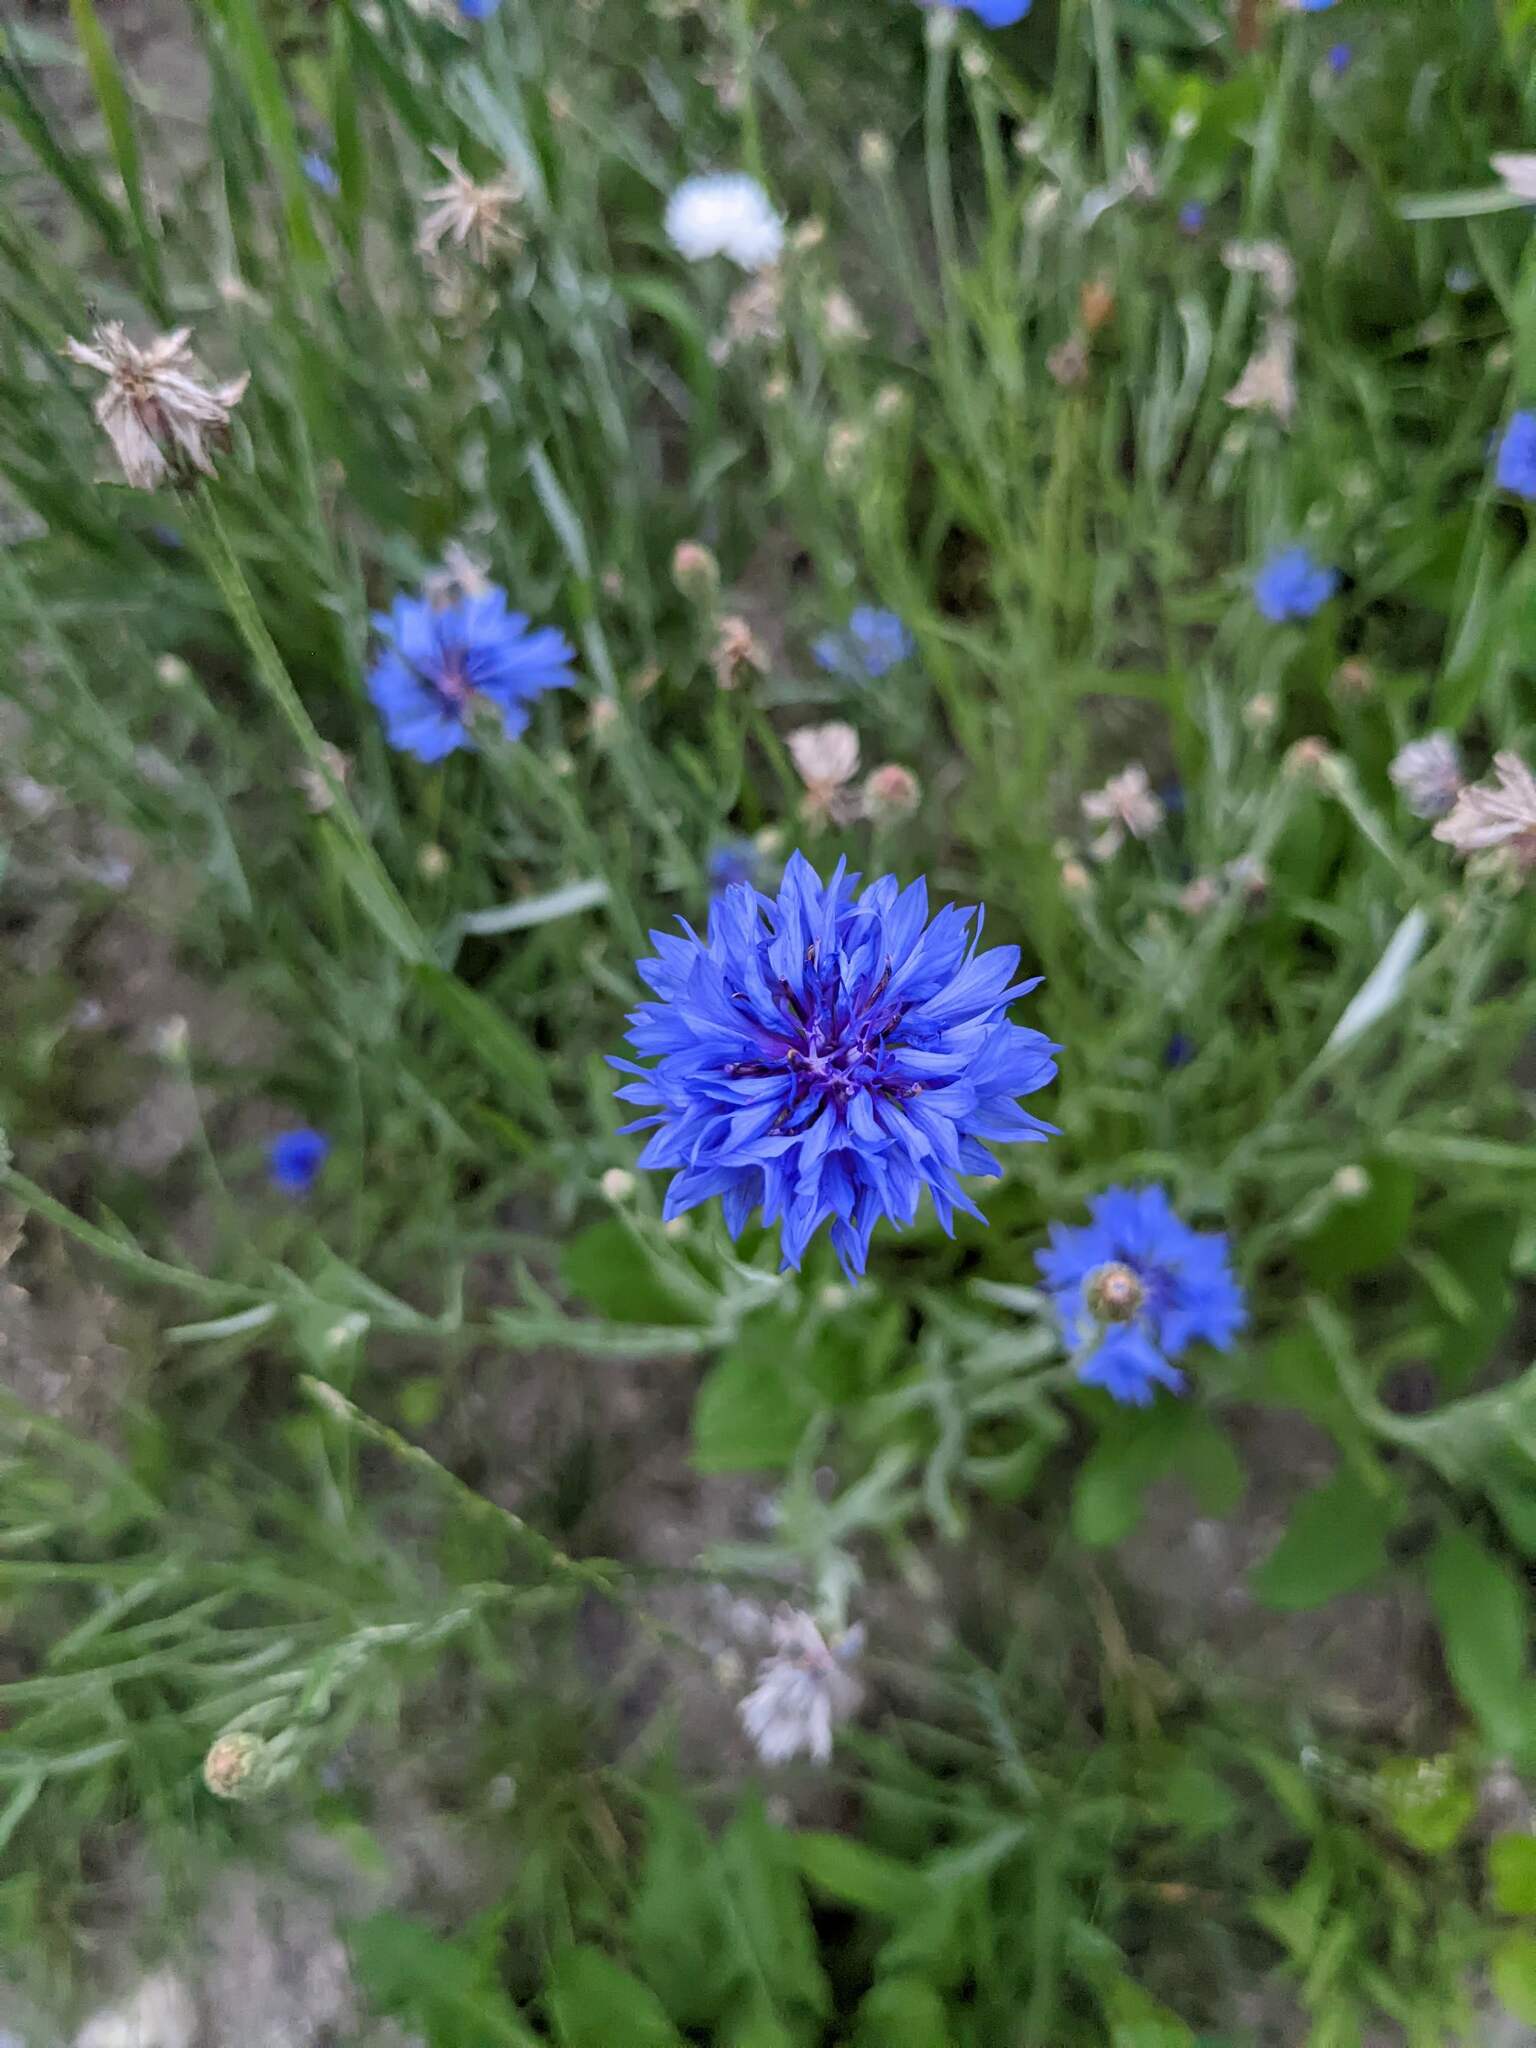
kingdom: Plantae
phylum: Tracheophyta
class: Magnoliopsida
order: Asterales
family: Asteraceae
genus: Centaurea
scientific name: Centaurea cyanus
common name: Cornflower
